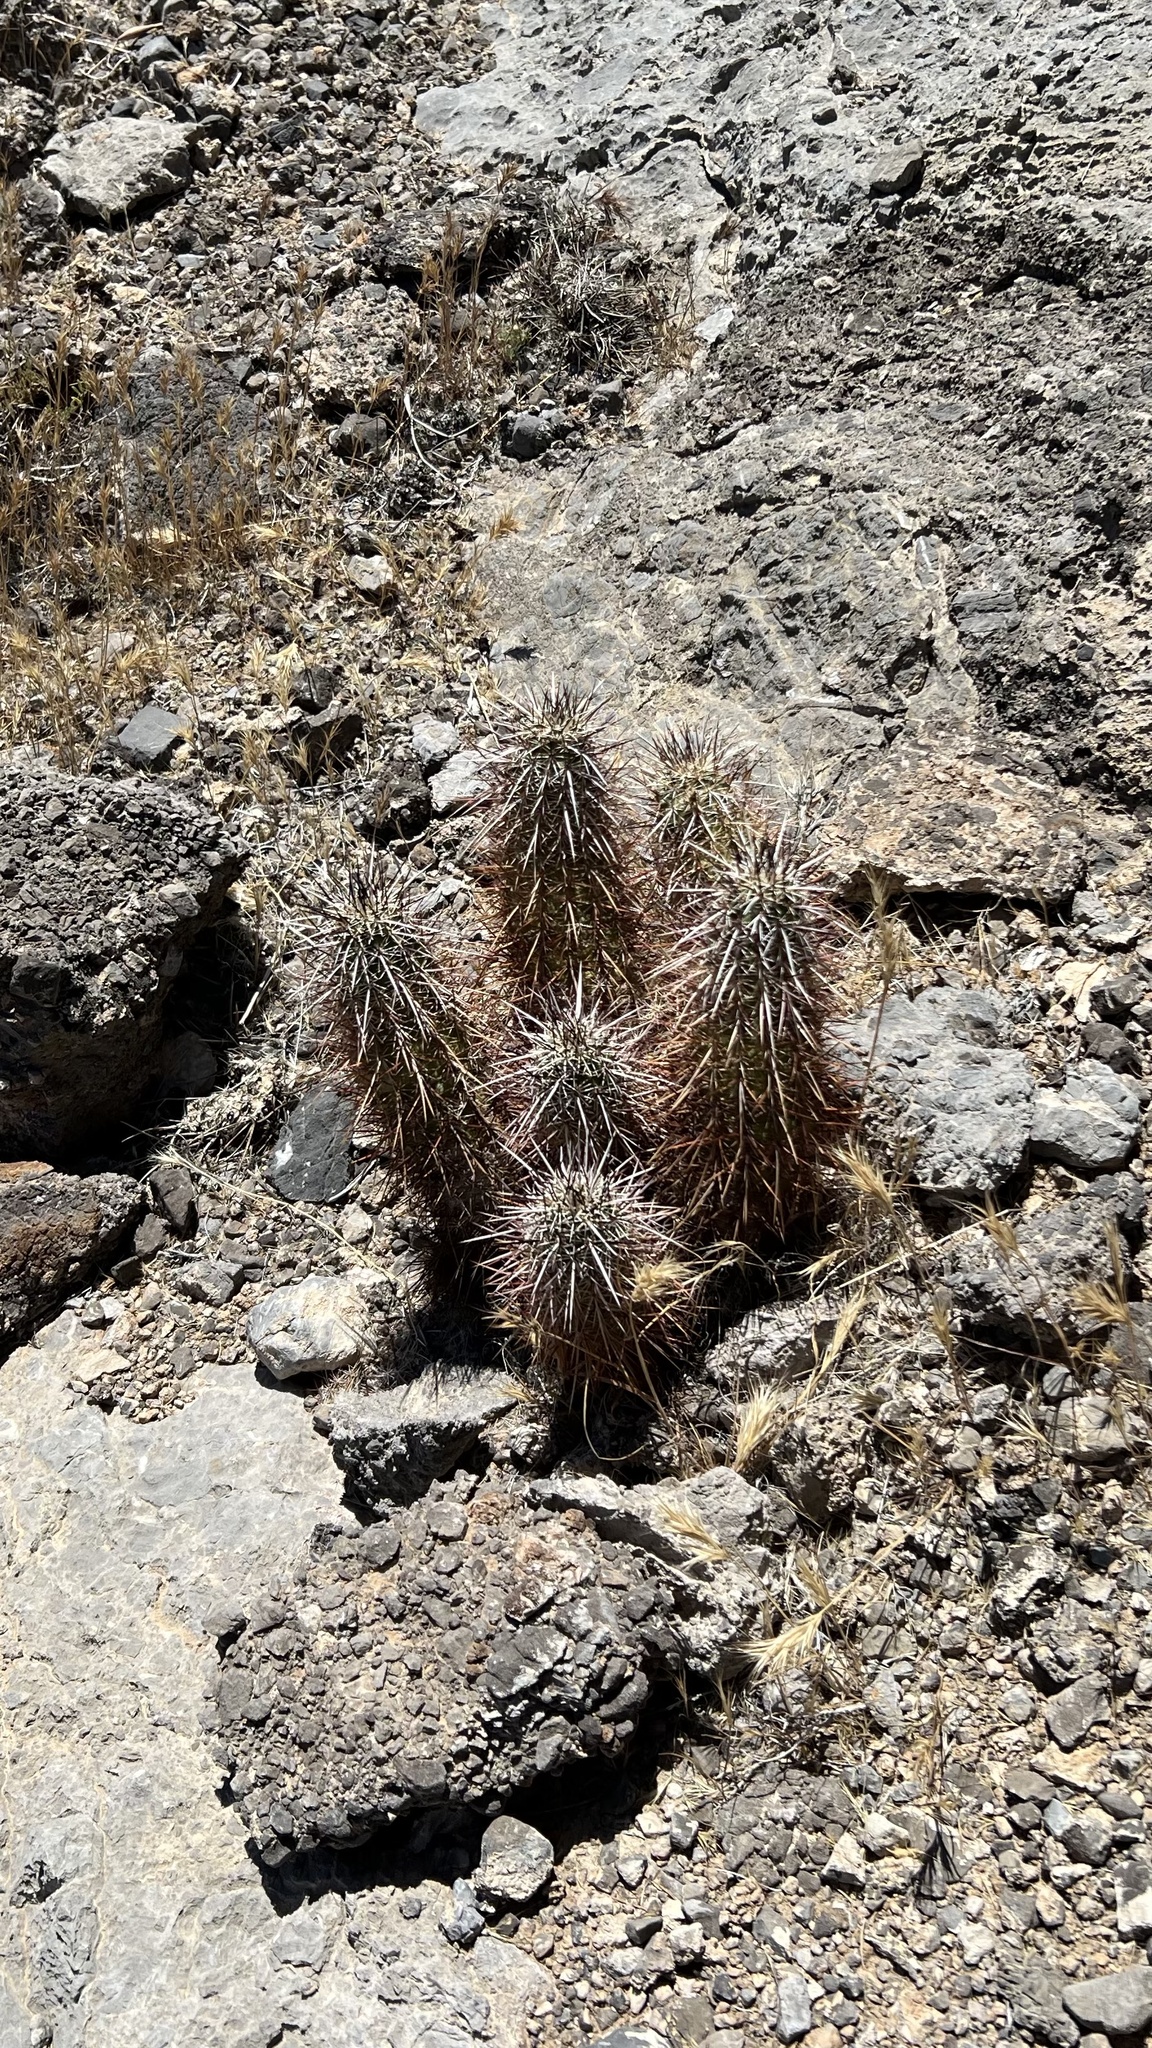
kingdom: Plantae
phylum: Tracheophyta
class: Magnoliopsida
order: Caryophyllales
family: Cactaceae
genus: Echinocereus
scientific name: Echinocereus engelmannii
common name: Engelmann's hedgehog cactus
